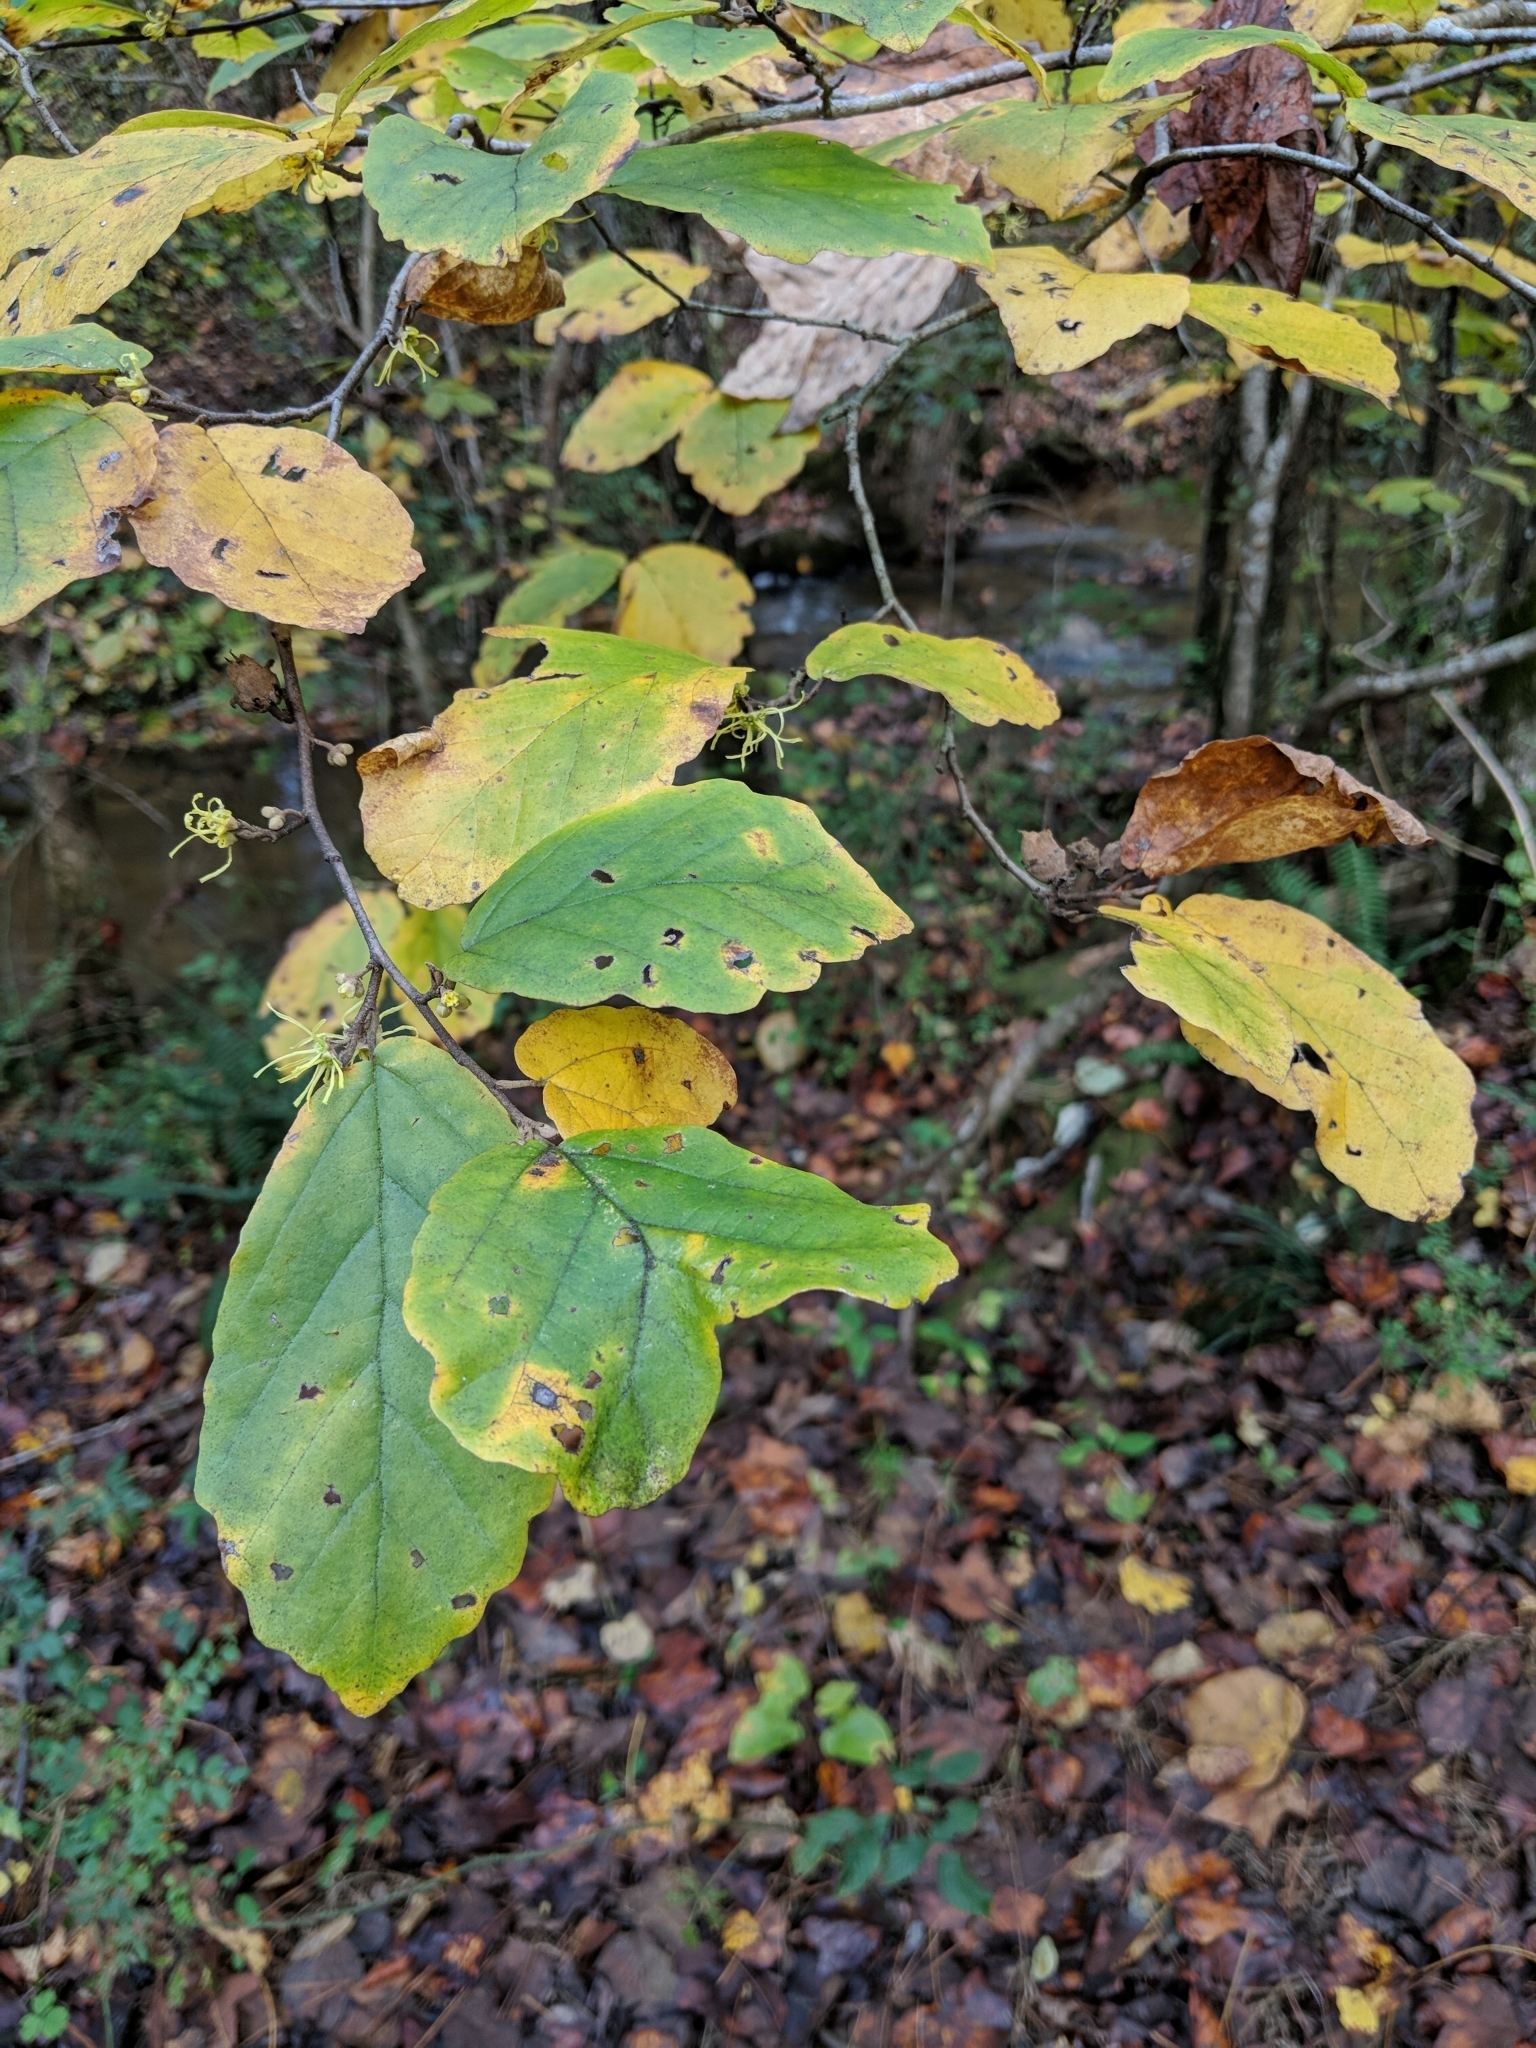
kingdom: Plantae
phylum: Tracheophyta
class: Magnoliopsida
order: Saxifragales
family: Hamamelidaceae
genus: Hamamelis
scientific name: Hamamelis virginiana
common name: Witch-hazel
